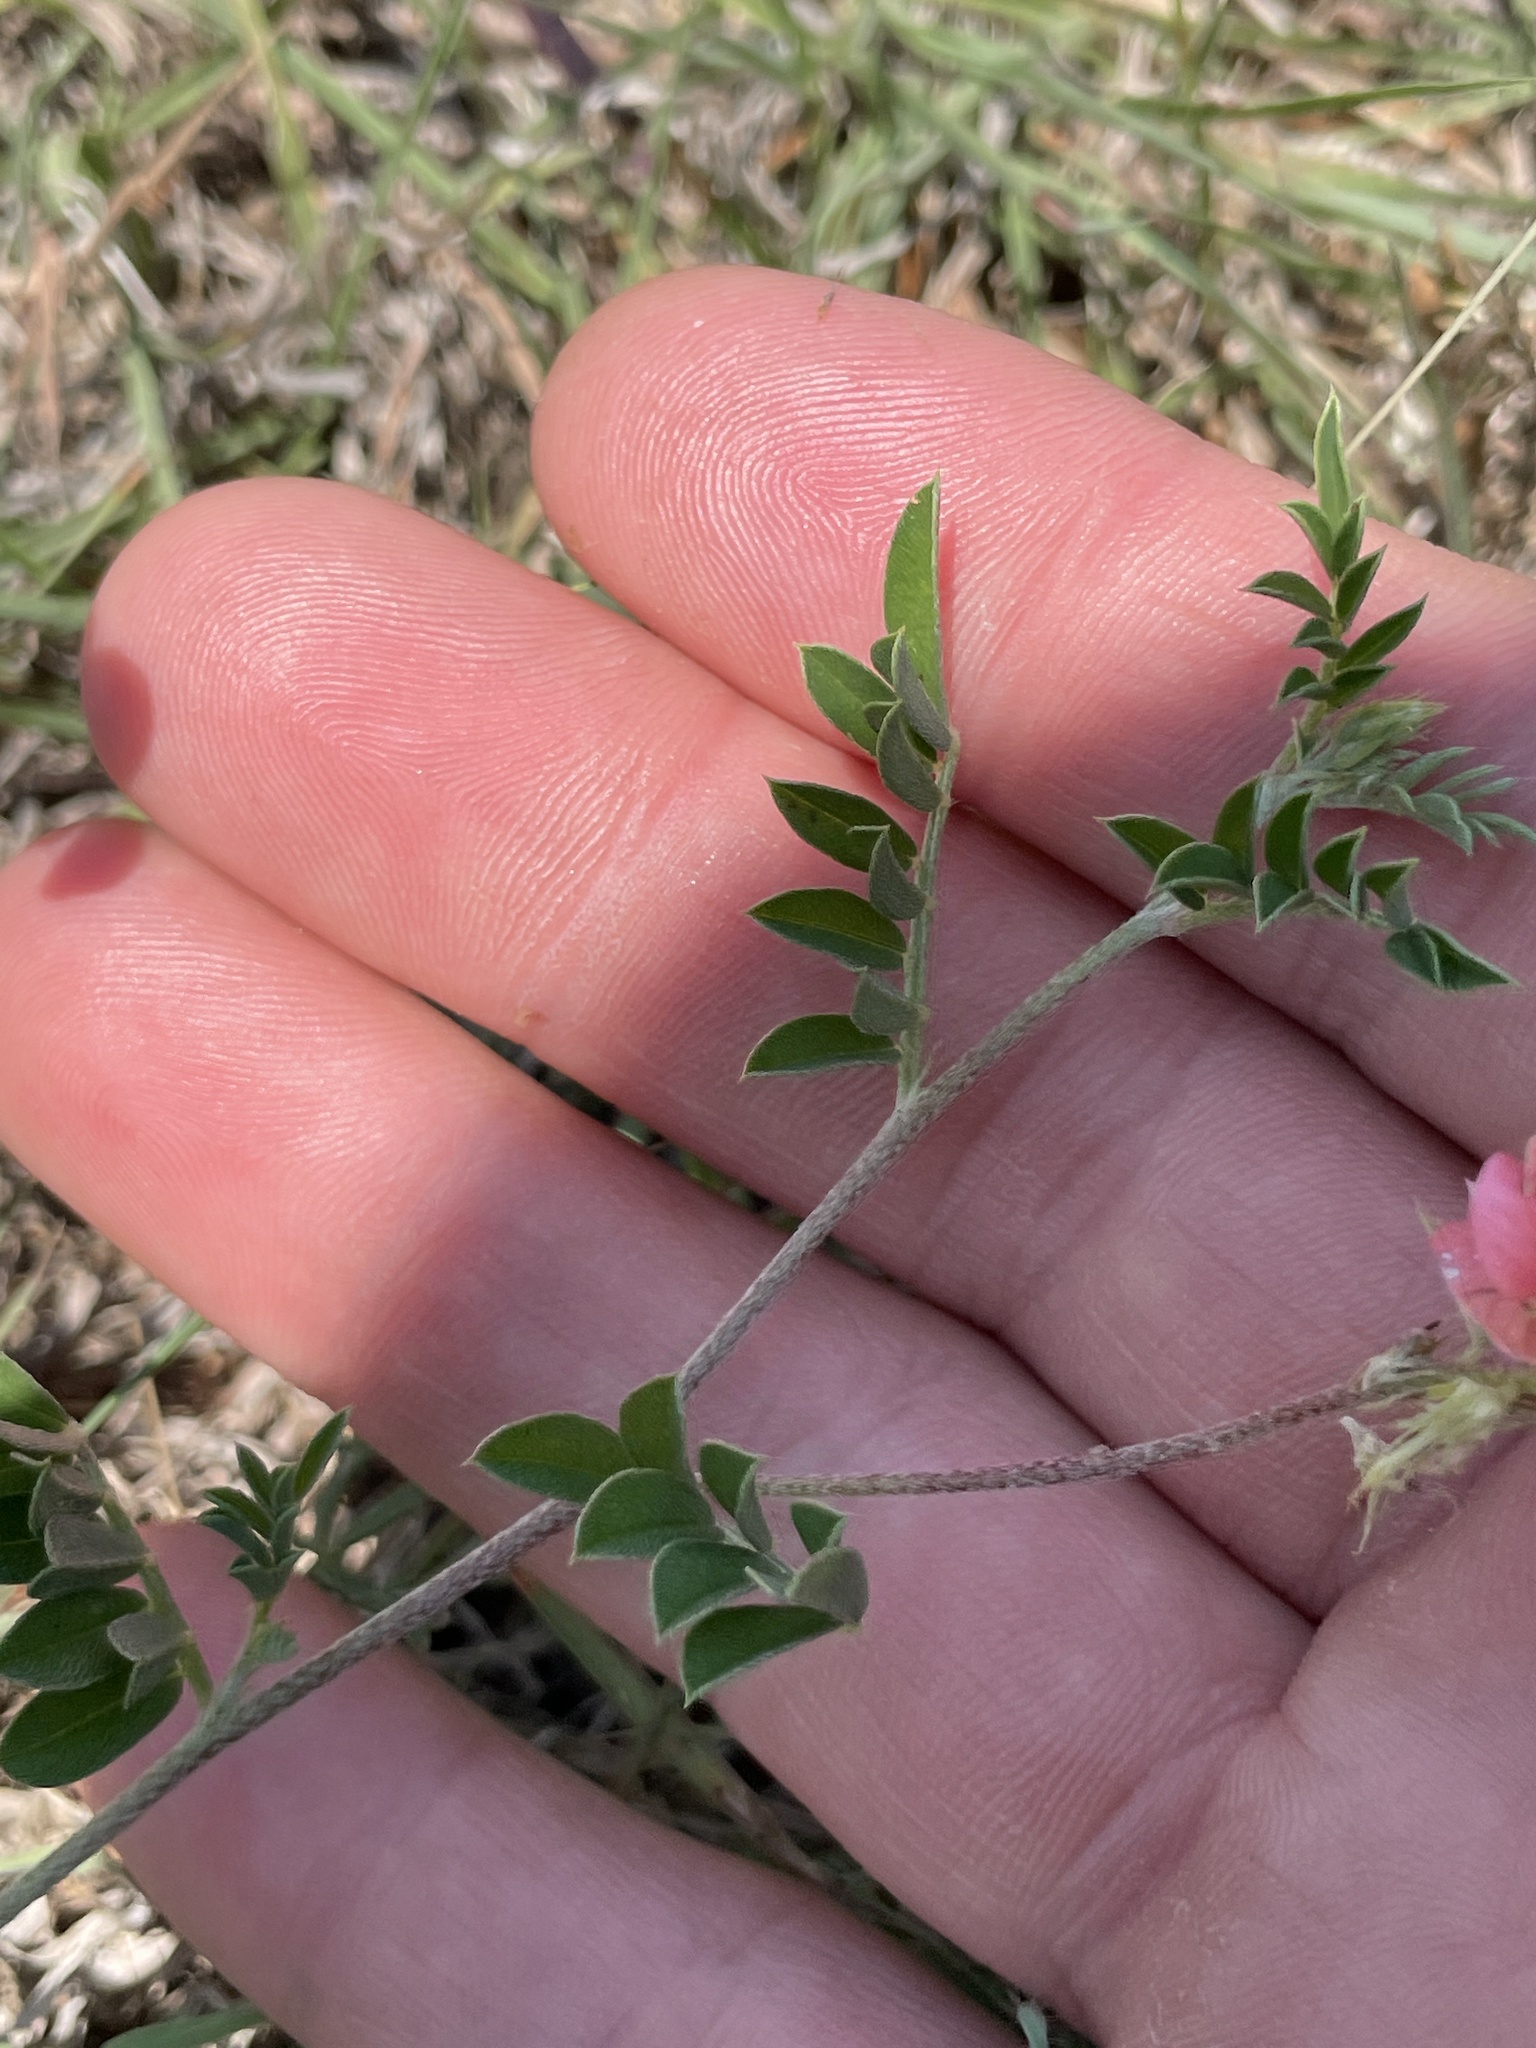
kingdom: Plantae
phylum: Tracheophyta
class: Magnoliopsida
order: Fabales
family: Fabaceae
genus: Indigofera
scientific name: Indigofera miniata
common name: Coast indigo
